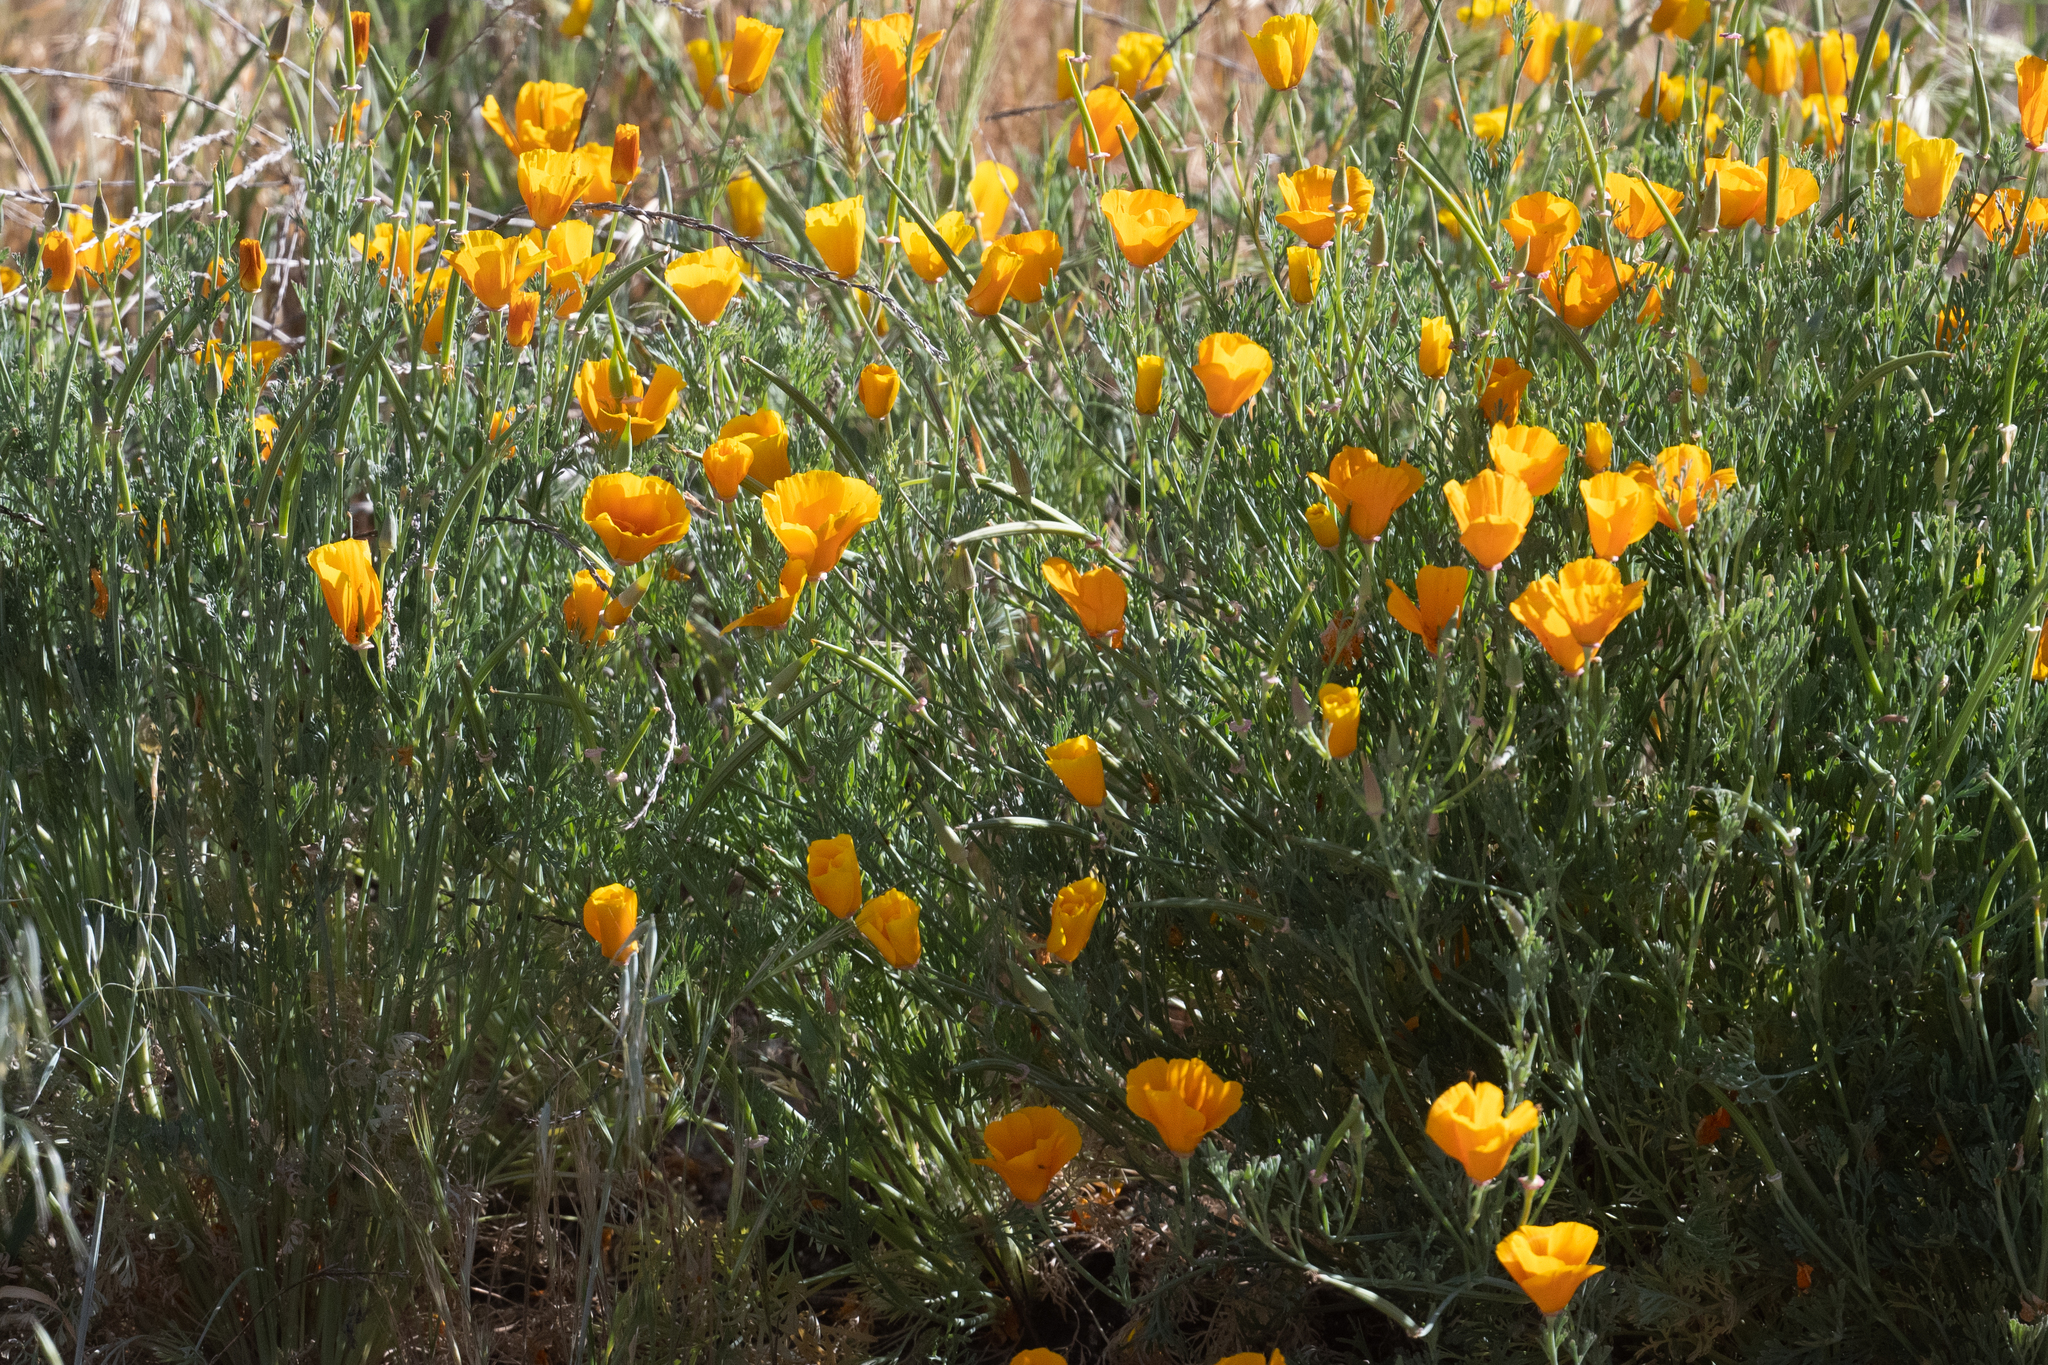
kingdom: Plantae
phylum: Tracheophyta
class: Magnoliopsida
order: Ranunculales
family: Papaveraceae
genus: Eschscholzia
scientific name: Eschscholzia californica
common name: California poppy
